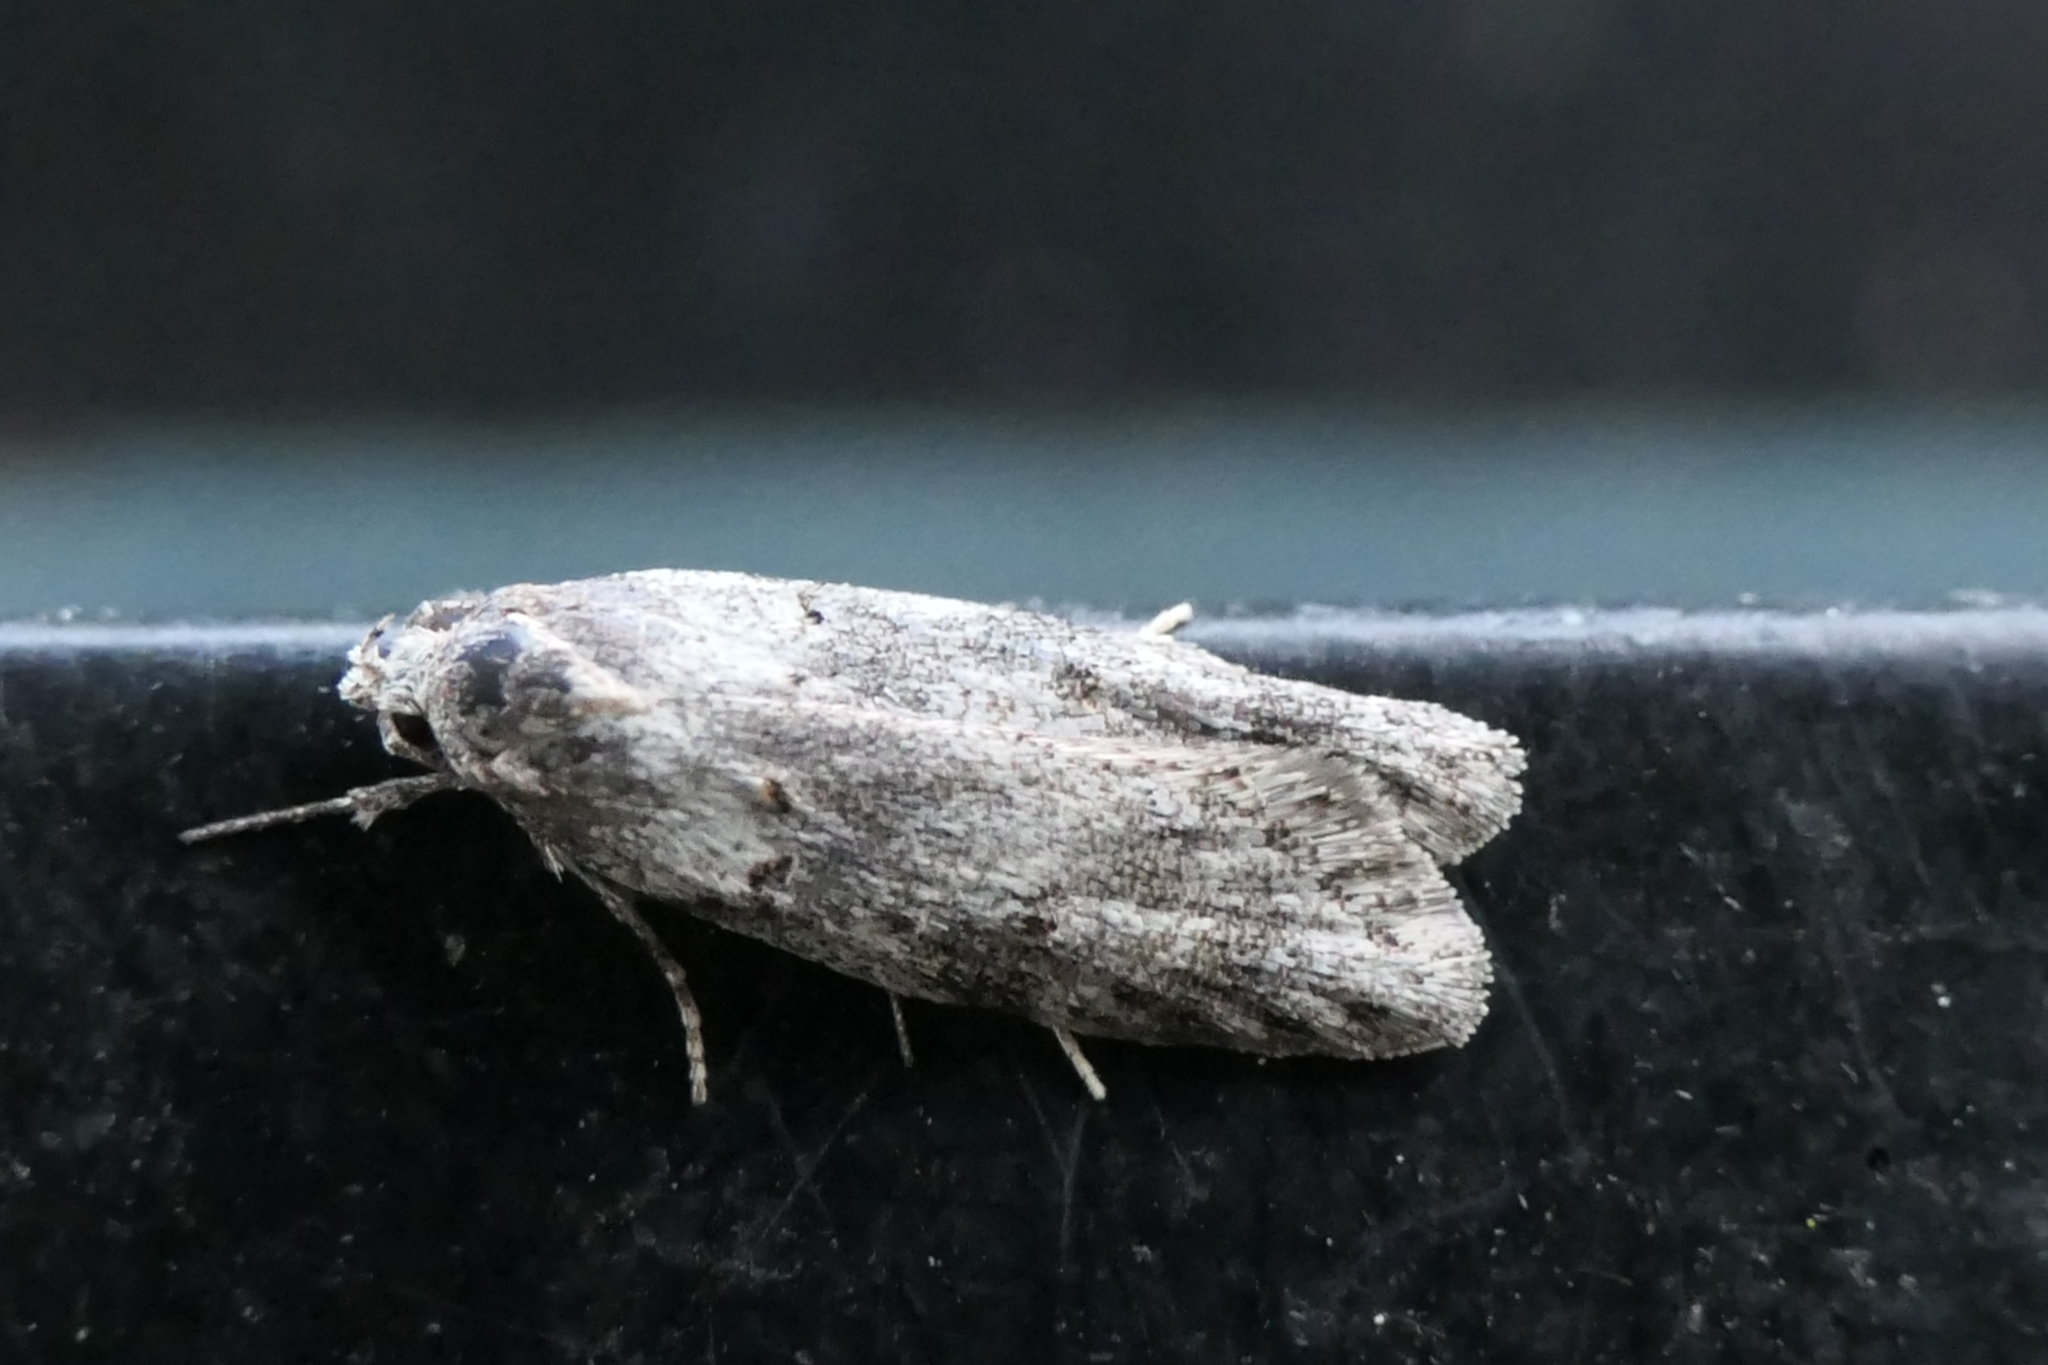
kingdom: Animalia
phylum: Arthropoda
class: Insecta
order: Lepidoptera
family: Oecophoridae
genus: Izatha
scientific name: Izatha convulsella
